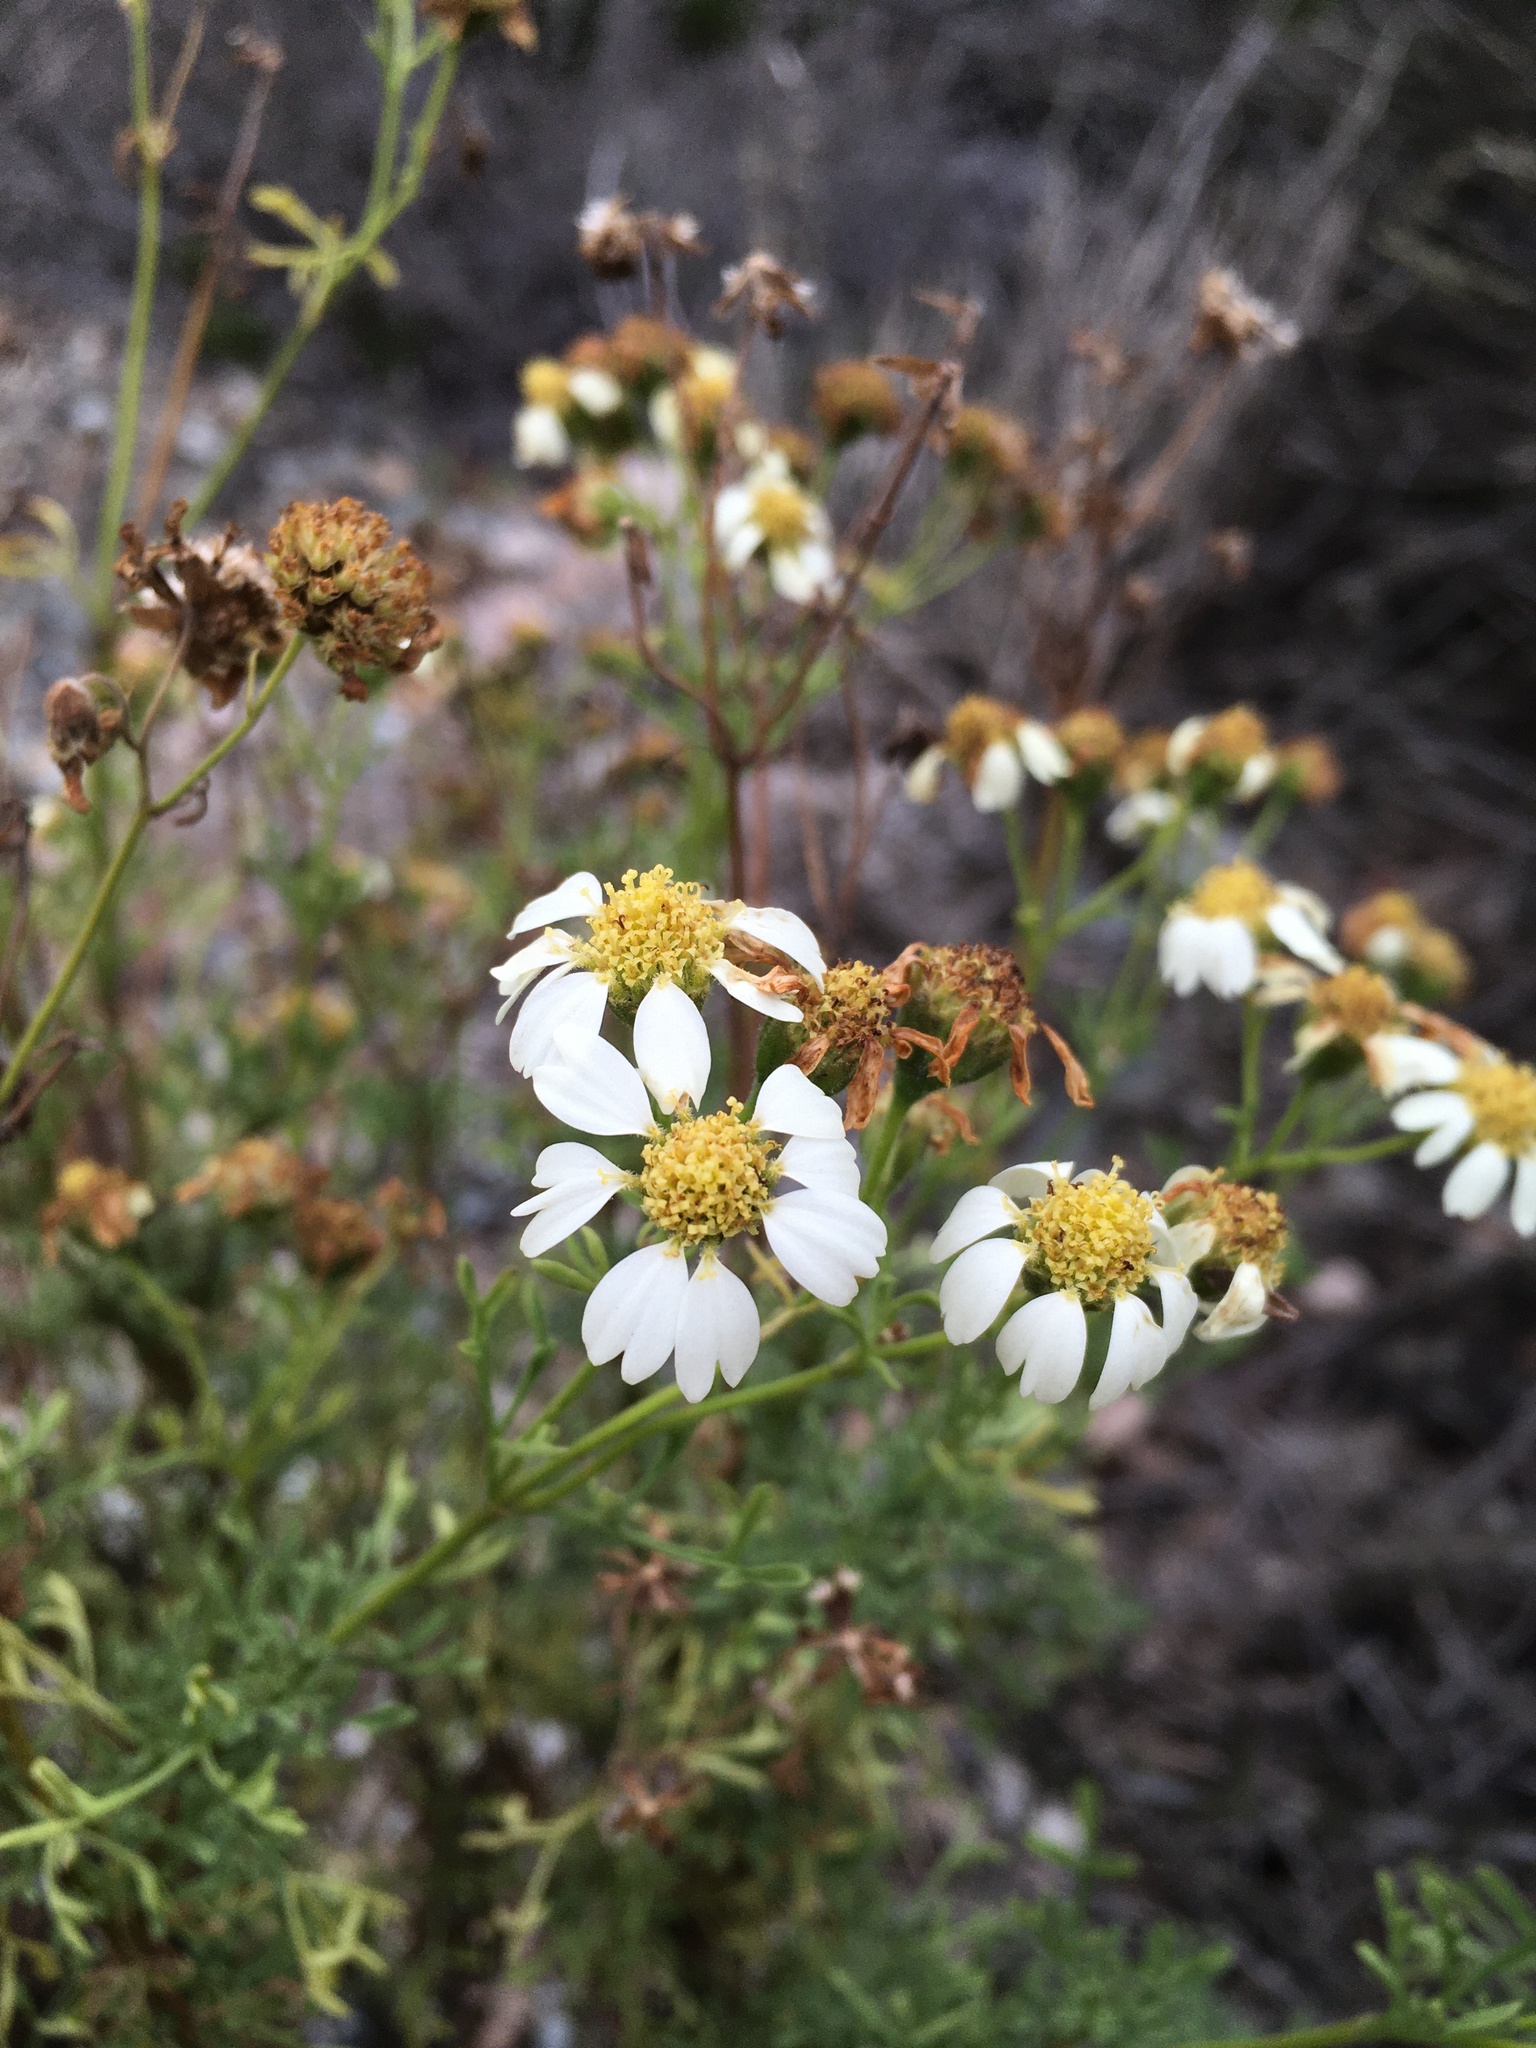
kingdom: Plantae
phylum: Tracheophyta
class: Magnoliopsida
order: Asterales
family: Asteraceae
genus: Bahia
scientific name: Bahia ambrosioides
